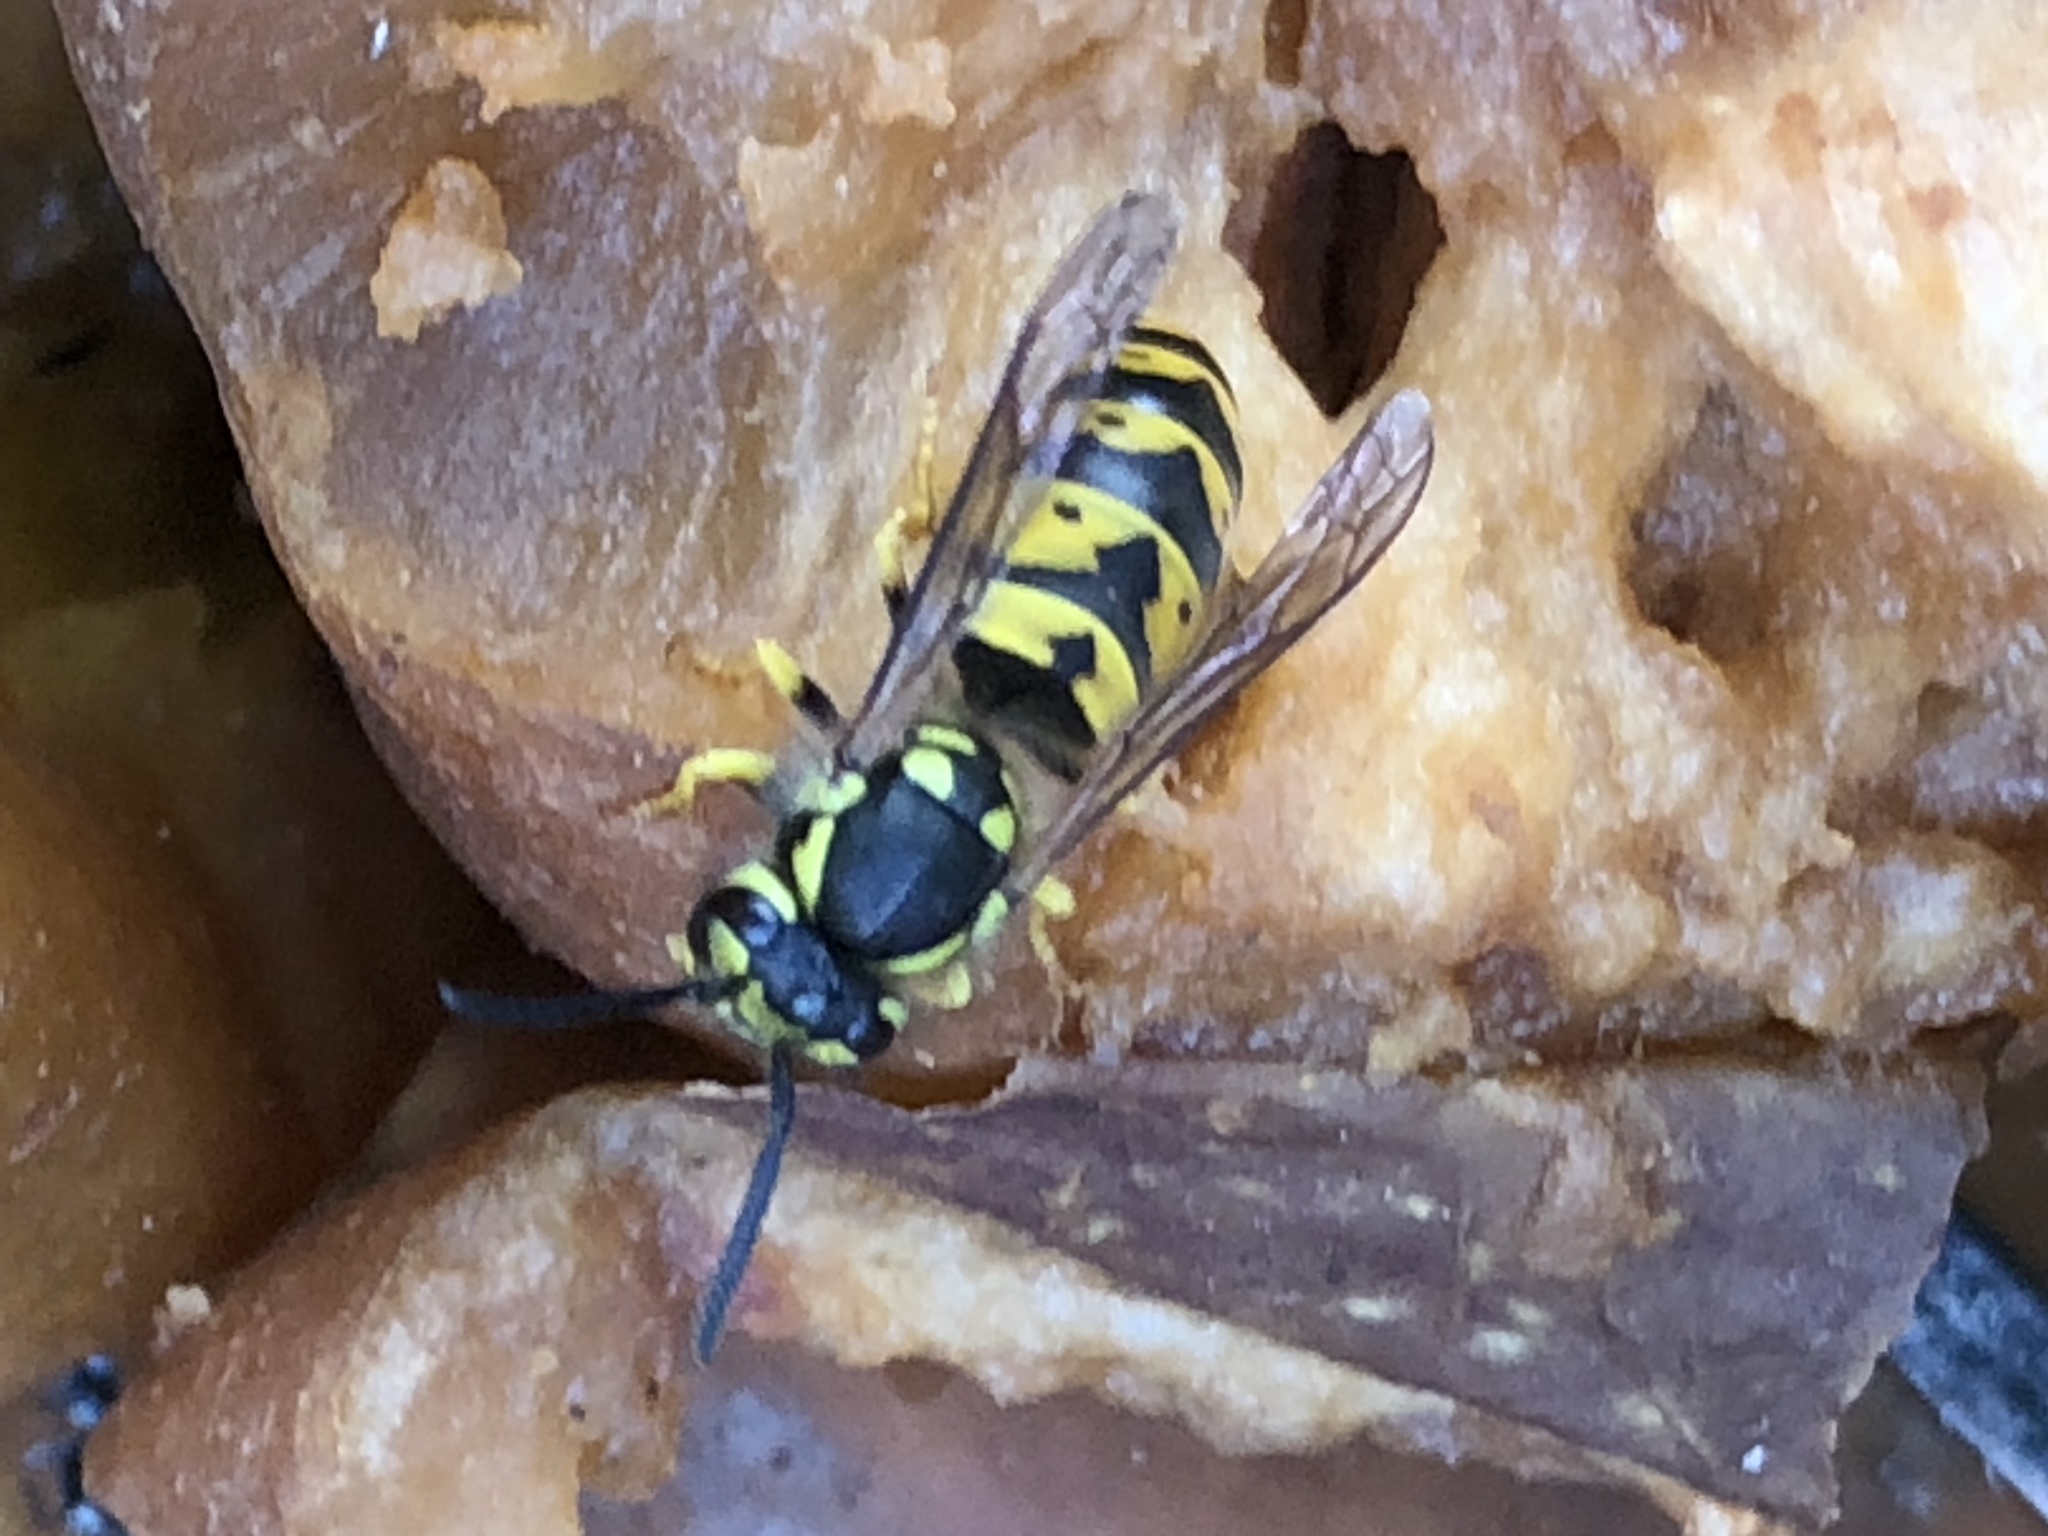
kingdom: Animalia
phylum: Arthropoda
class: Insecta
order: Hymenoptera
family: Vespidae
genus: Vespula
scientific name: Vespula germanica
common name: German wasp
